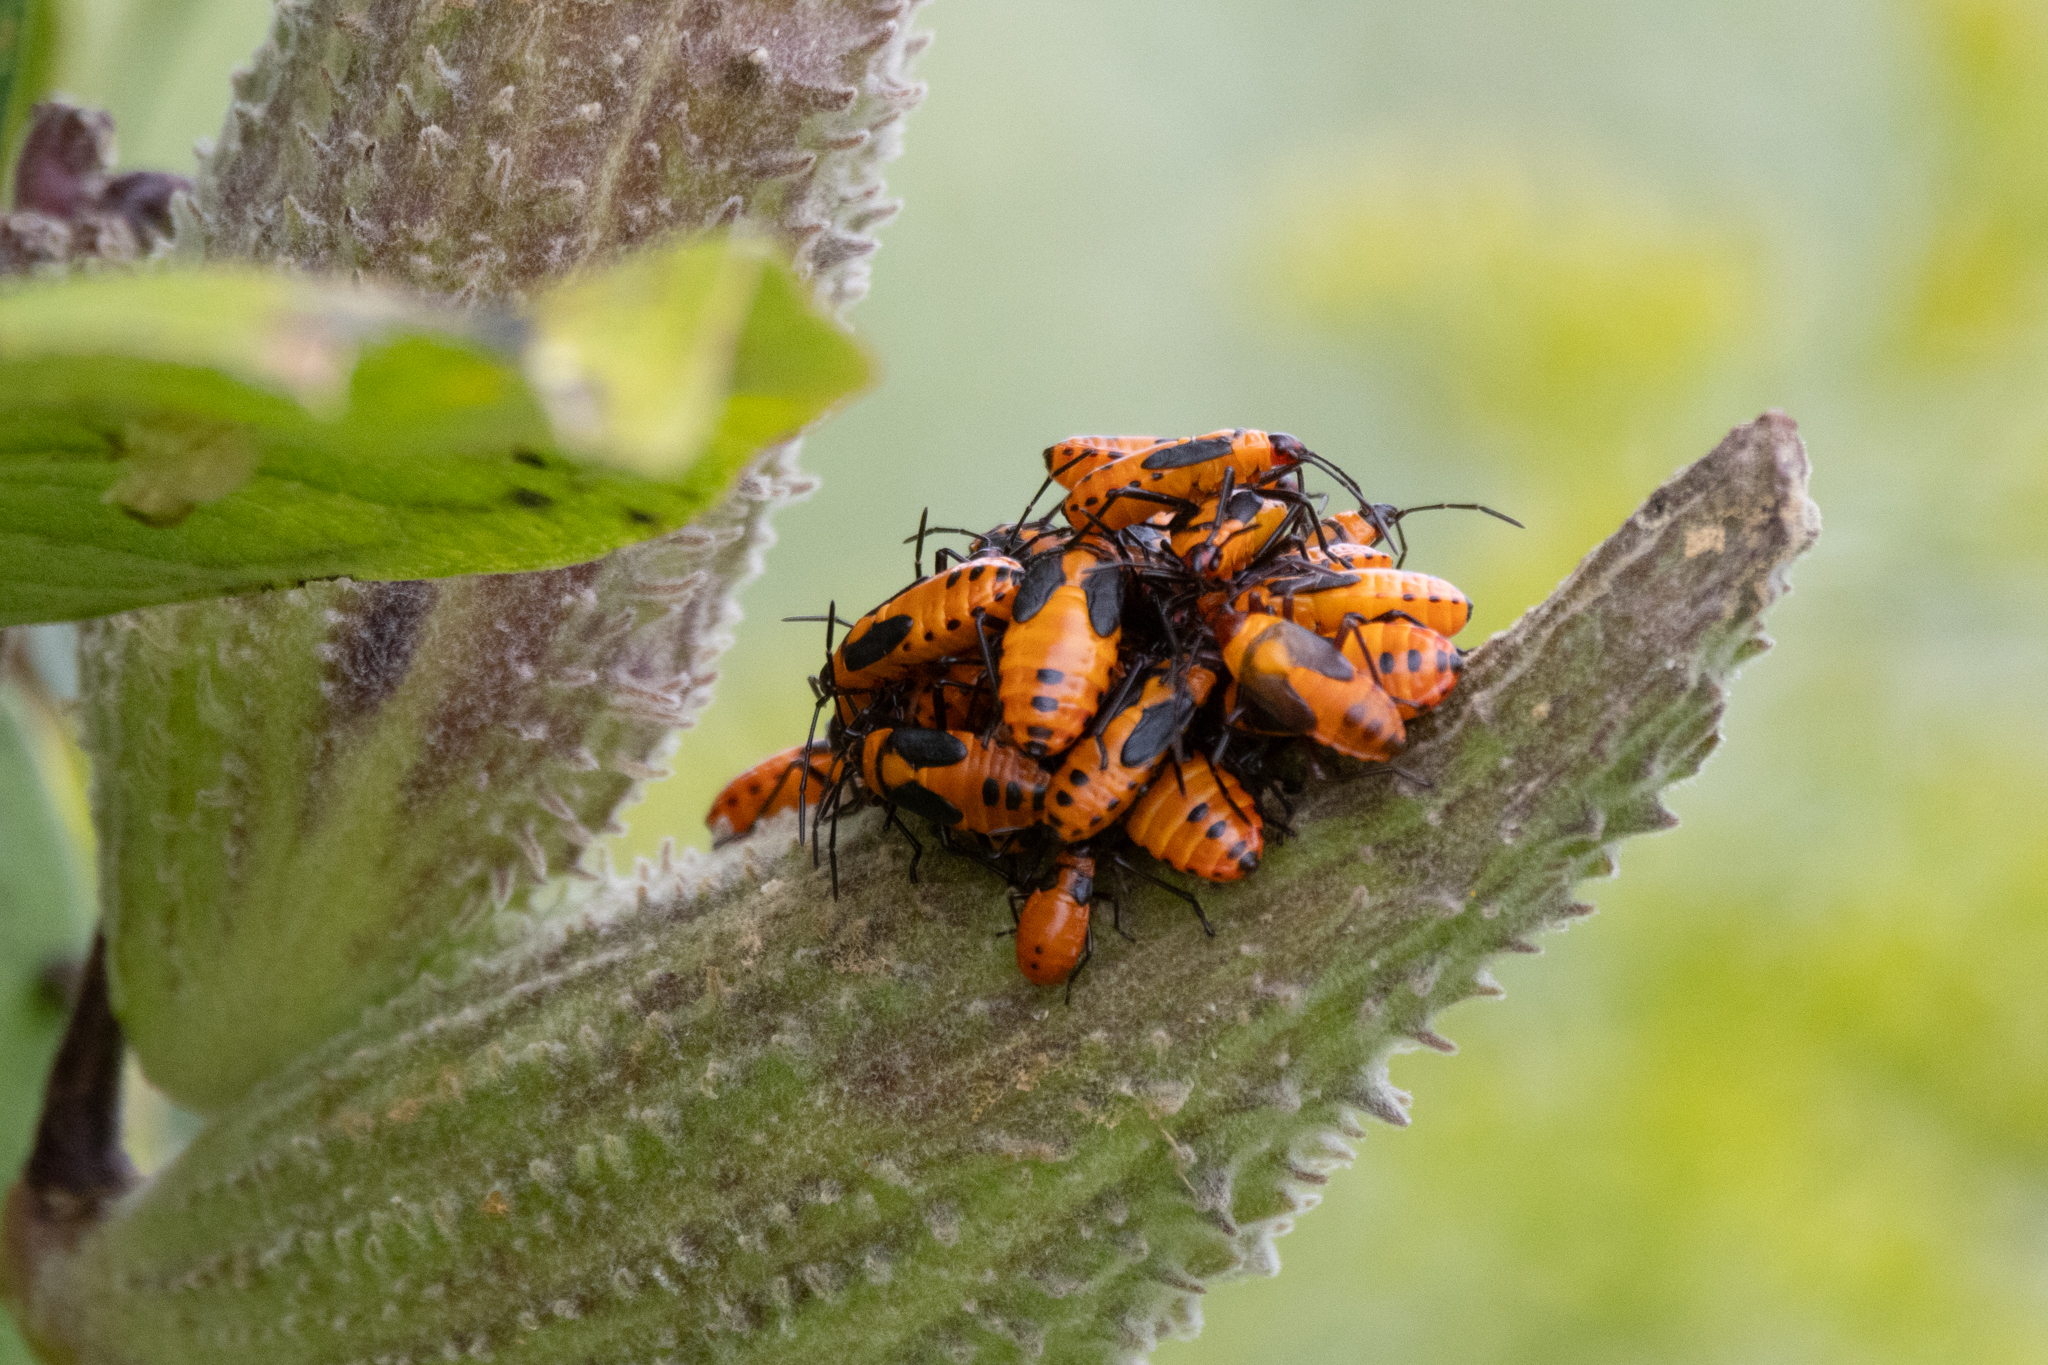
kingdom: Animalia
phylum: Arthropoda
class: Insecta
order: Hemiptera
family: Lygaeidae
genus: Oncopeltus
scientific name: Oncopeltus fasciatus
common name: Large milkweed bug
